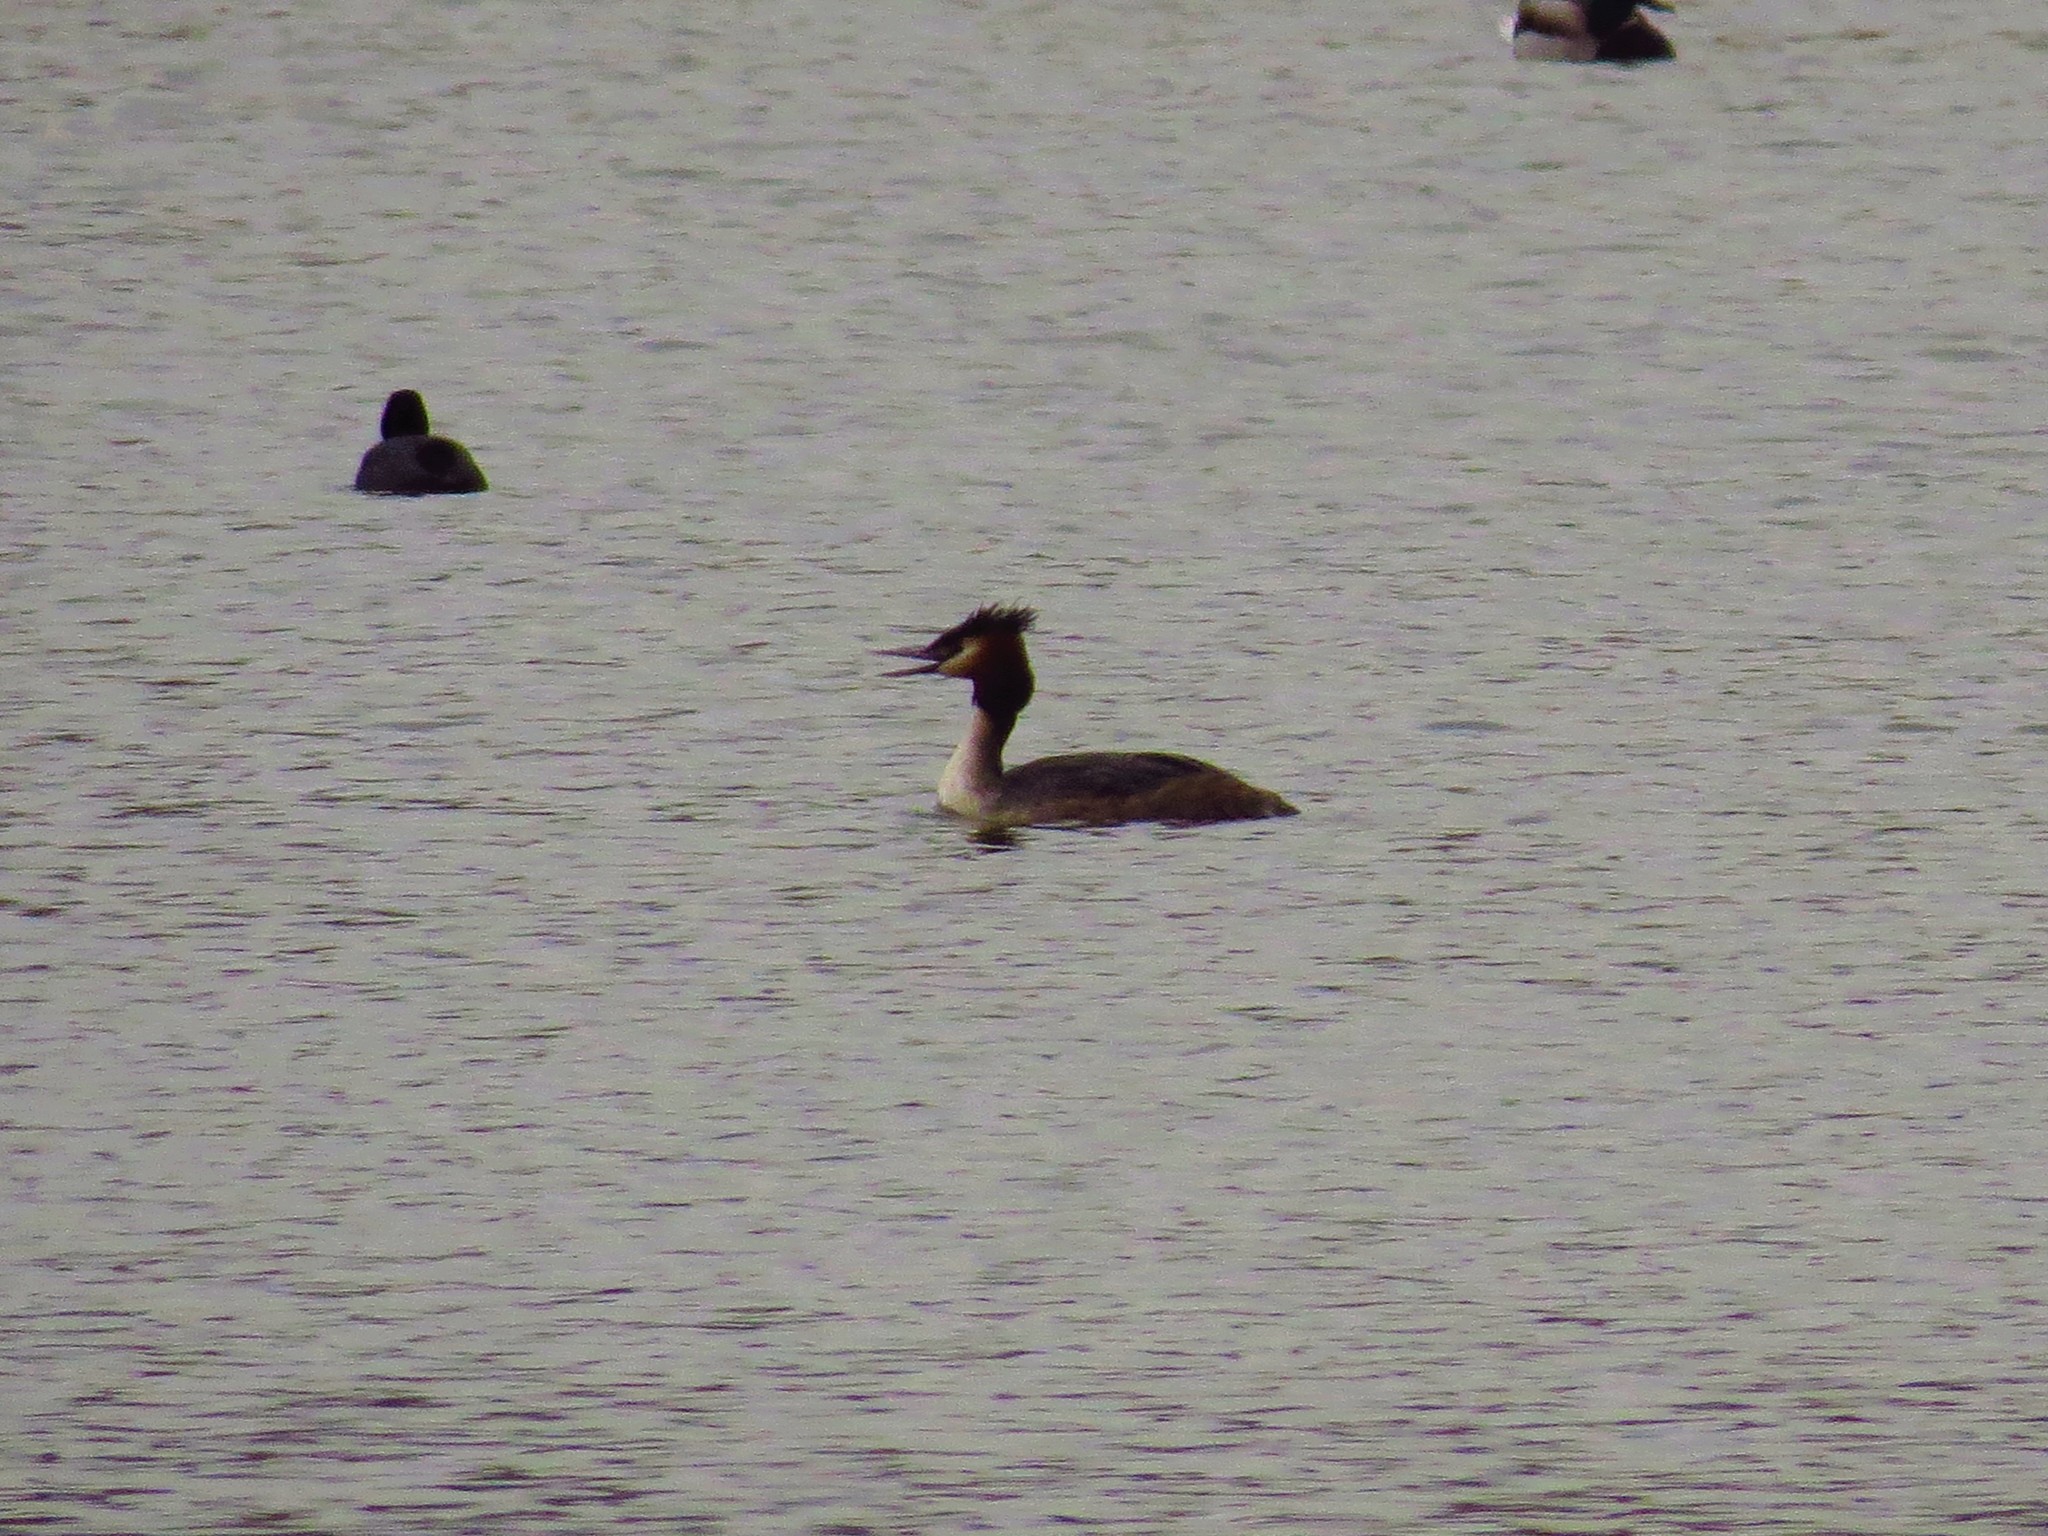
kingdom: Animalia
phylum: Chordata
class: Aves
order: Podicipediformes
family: Podicipedidae
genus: Podiceps
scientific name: Podiceps cristatus
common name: Great crested grebe
